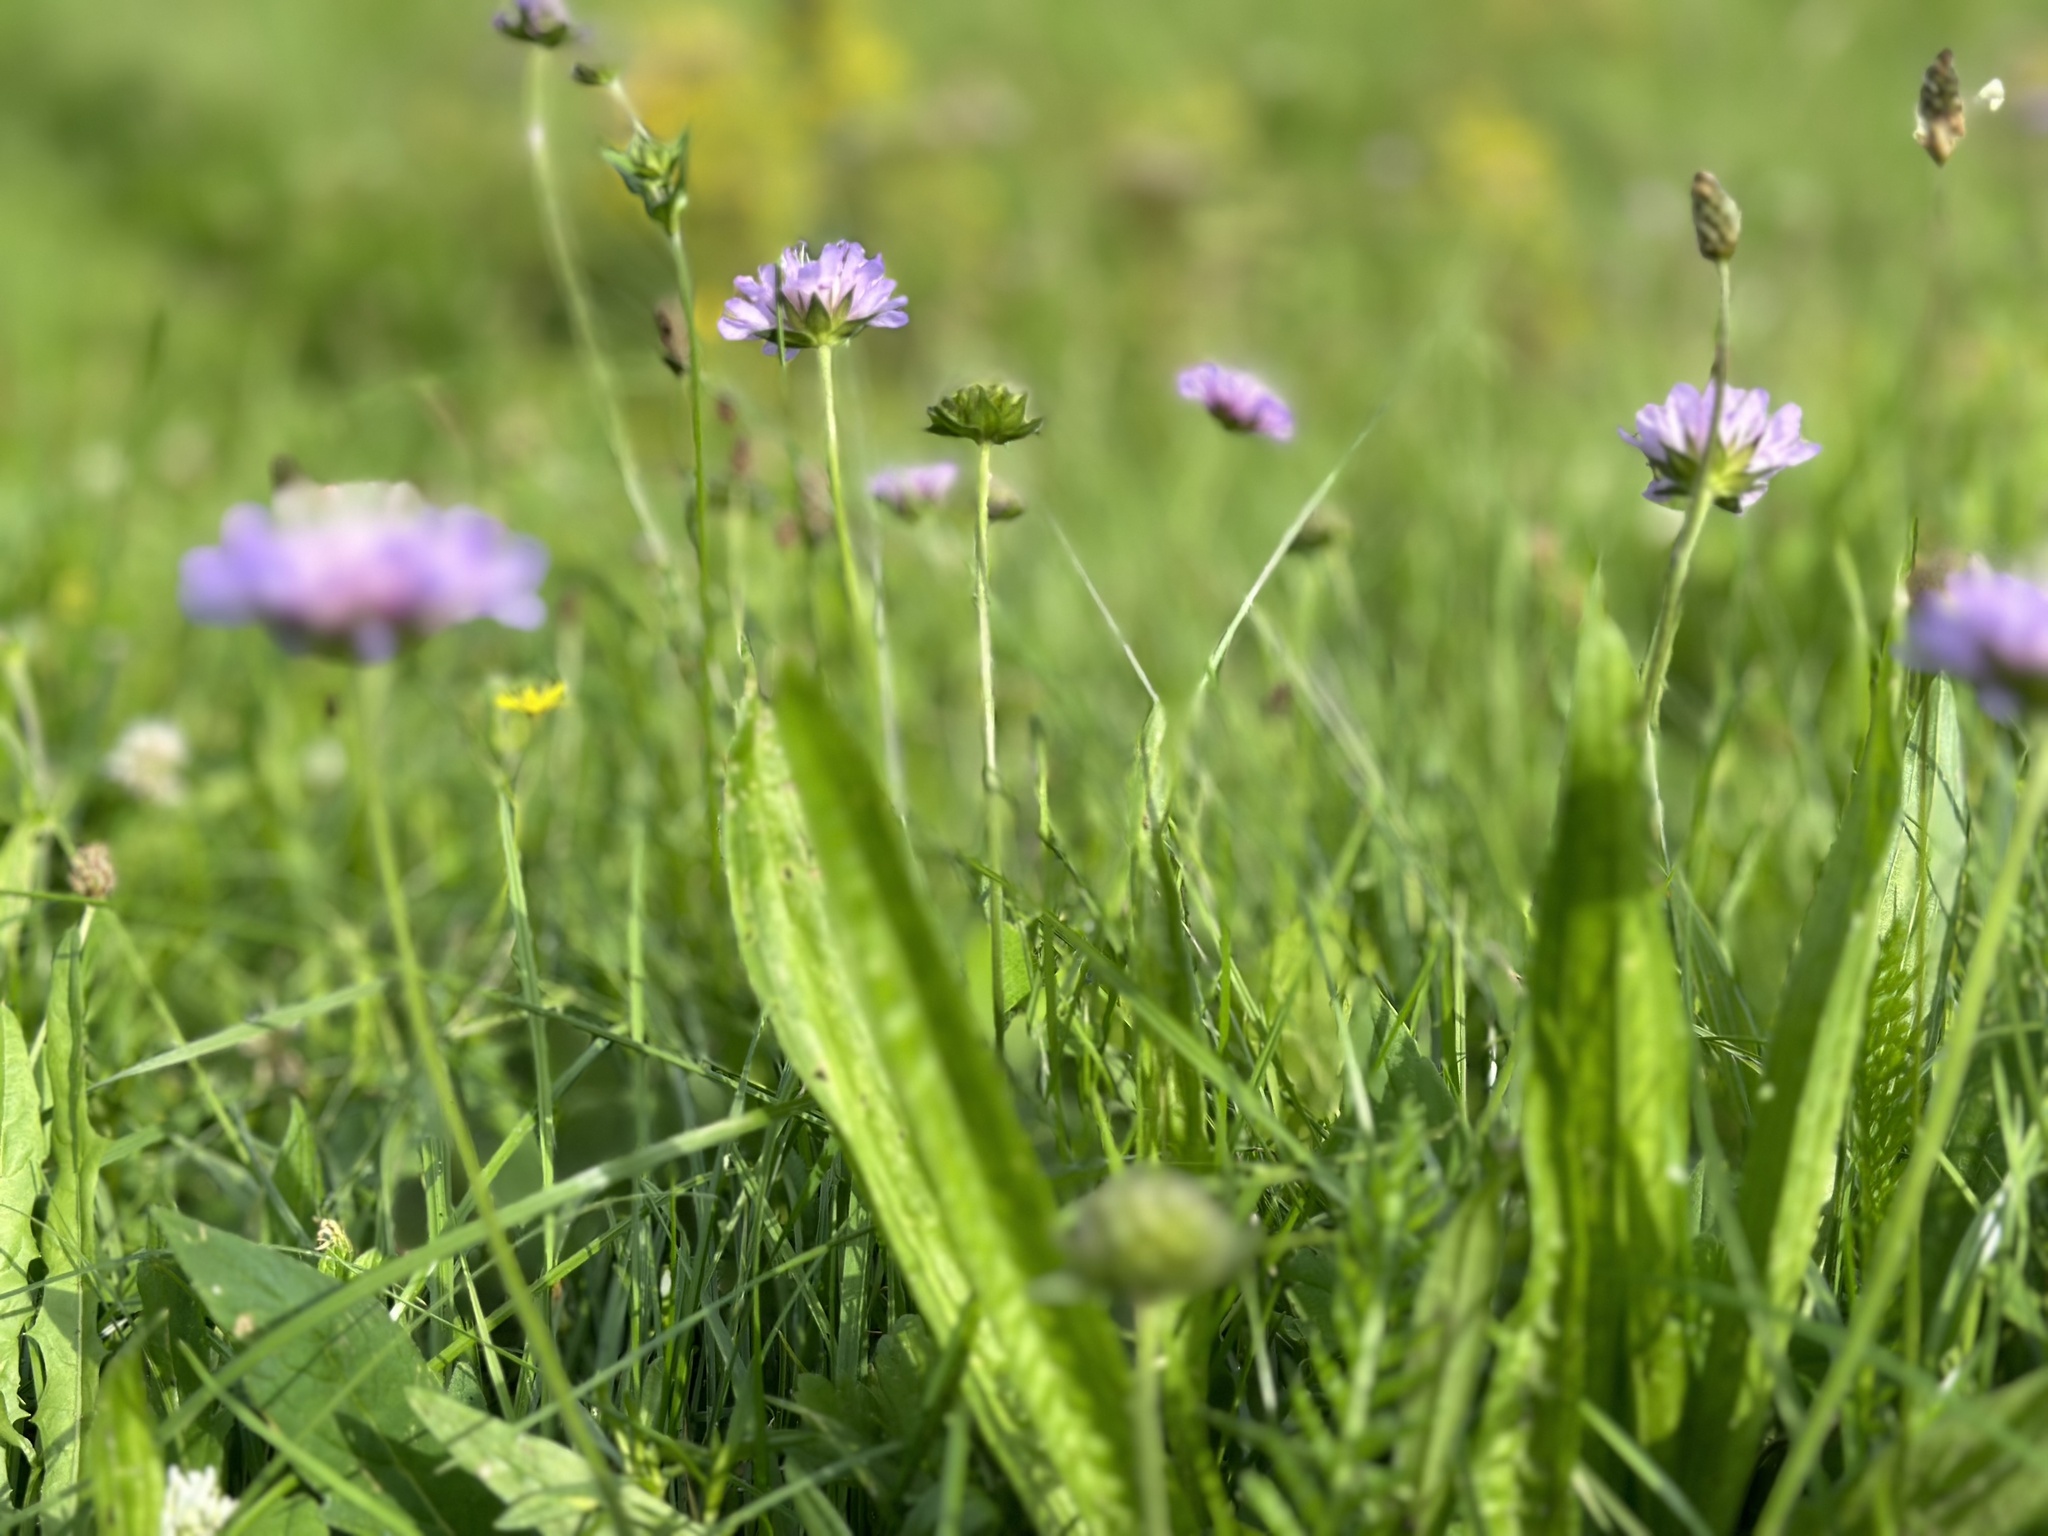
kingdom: Plantae
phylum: Tracheophyta
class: Magnoliopsida
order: Dipsacales
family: Caprifoliaceae
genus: Knautia
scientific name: Knautia arvensis
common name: Field scabiosa
